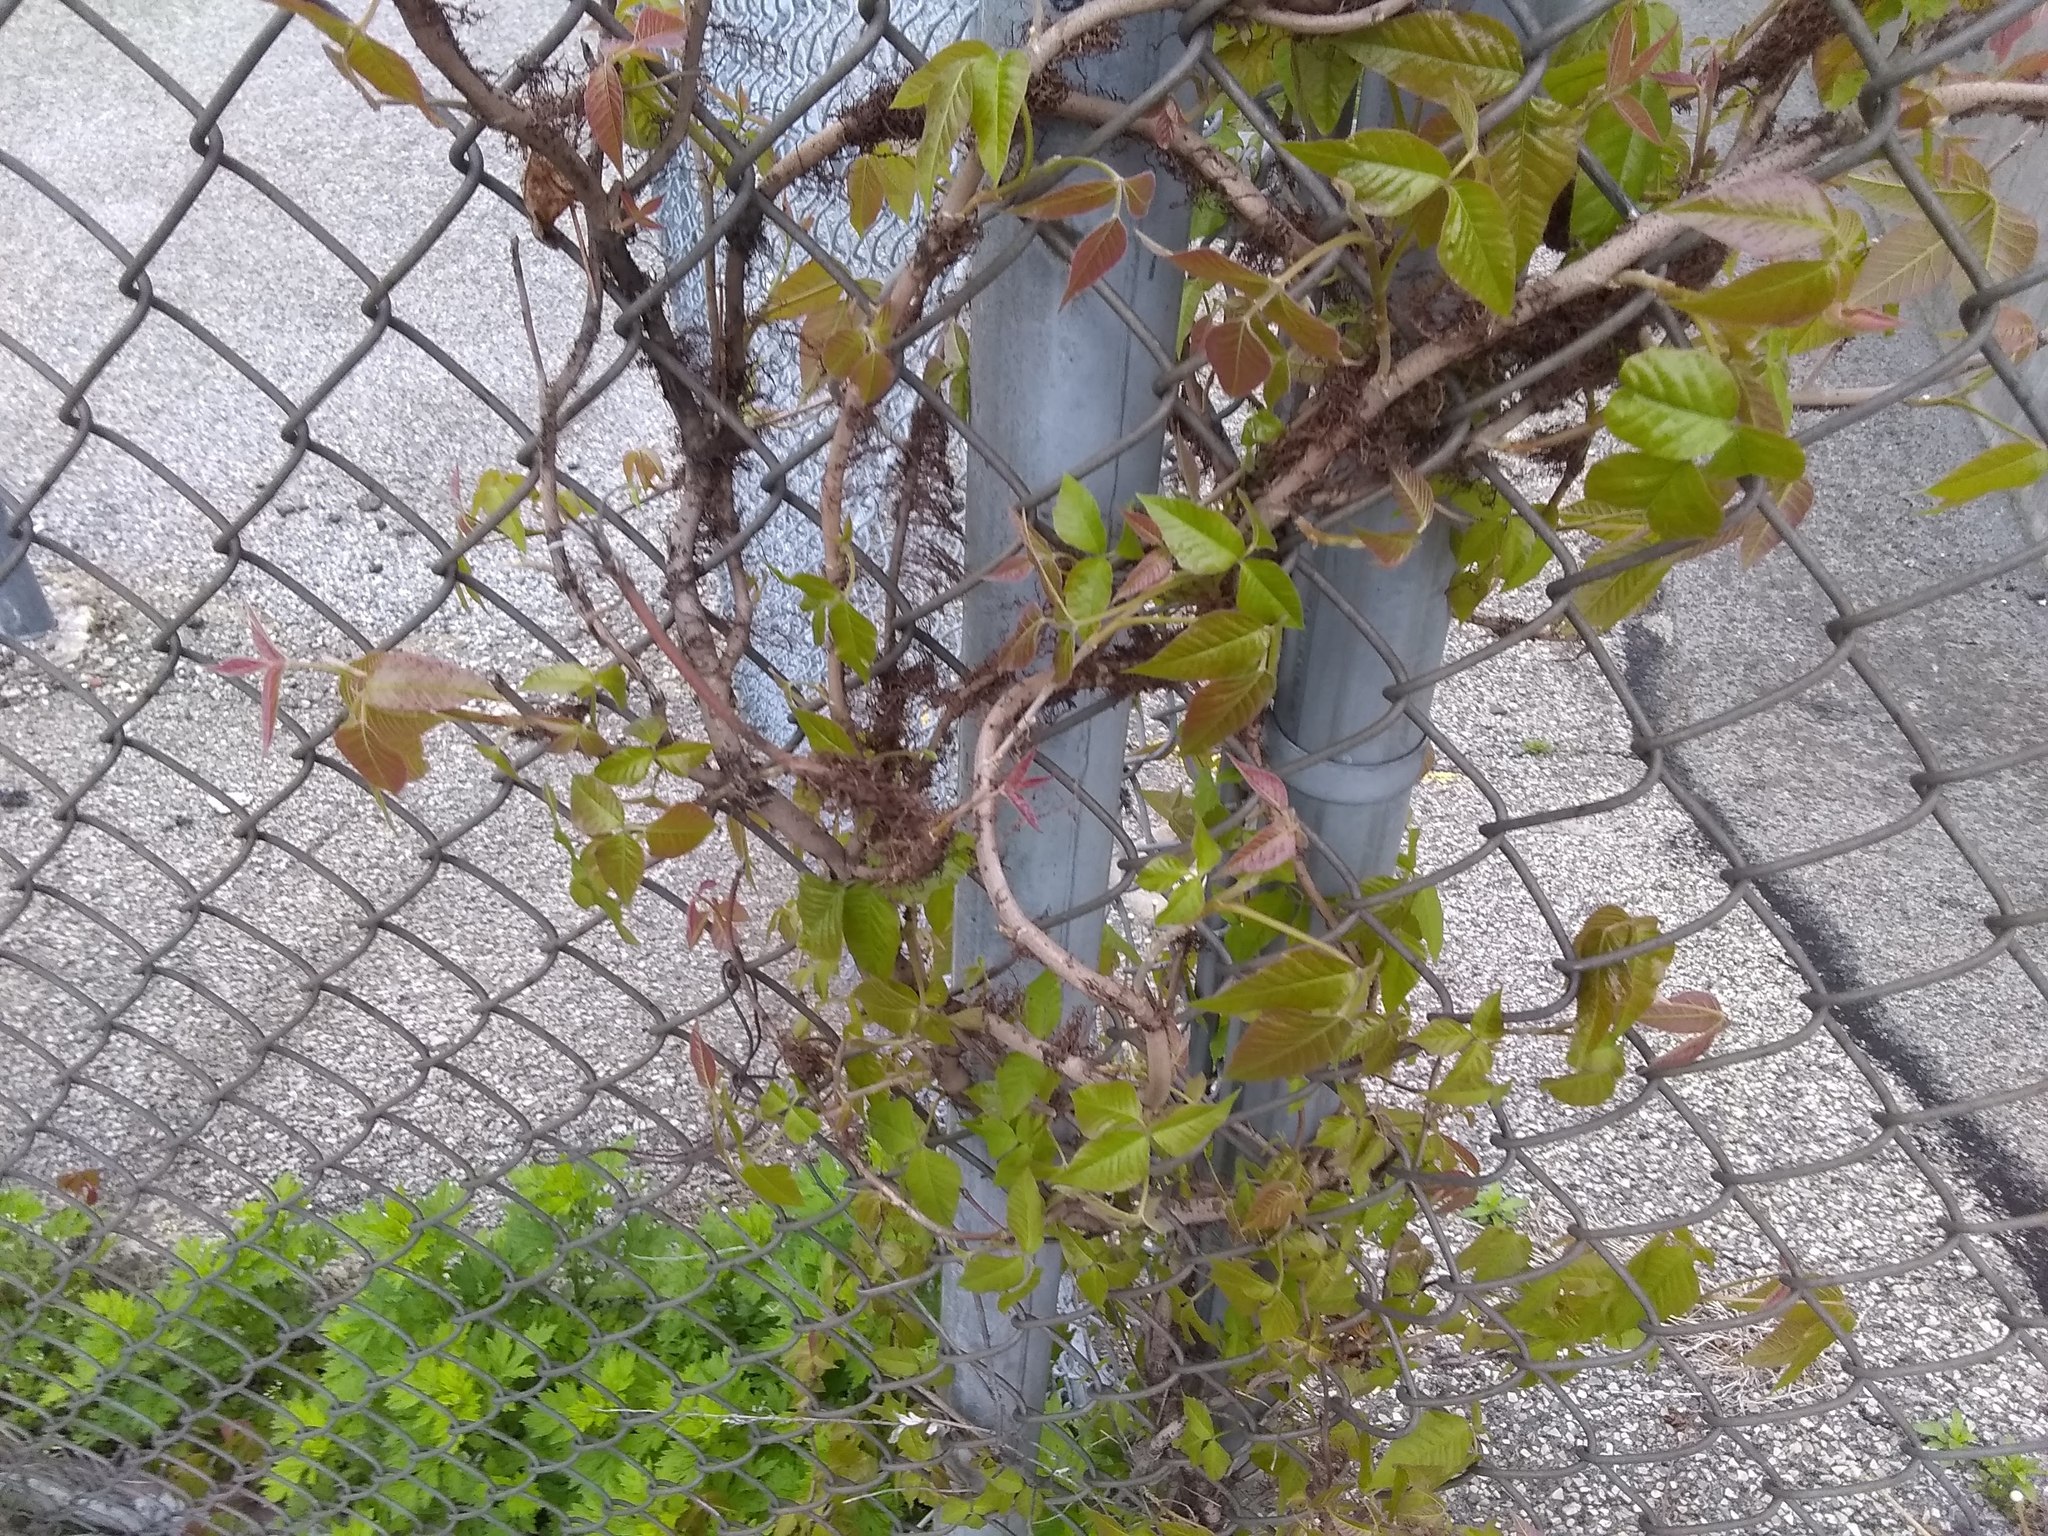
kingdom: Plantae
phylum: Tracheophyta
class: Magnoliopsida
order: Sapindales
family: Anacardiaceae
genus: Toxicodendron
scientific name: Toxicodendron radicans
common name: Poison ivy
